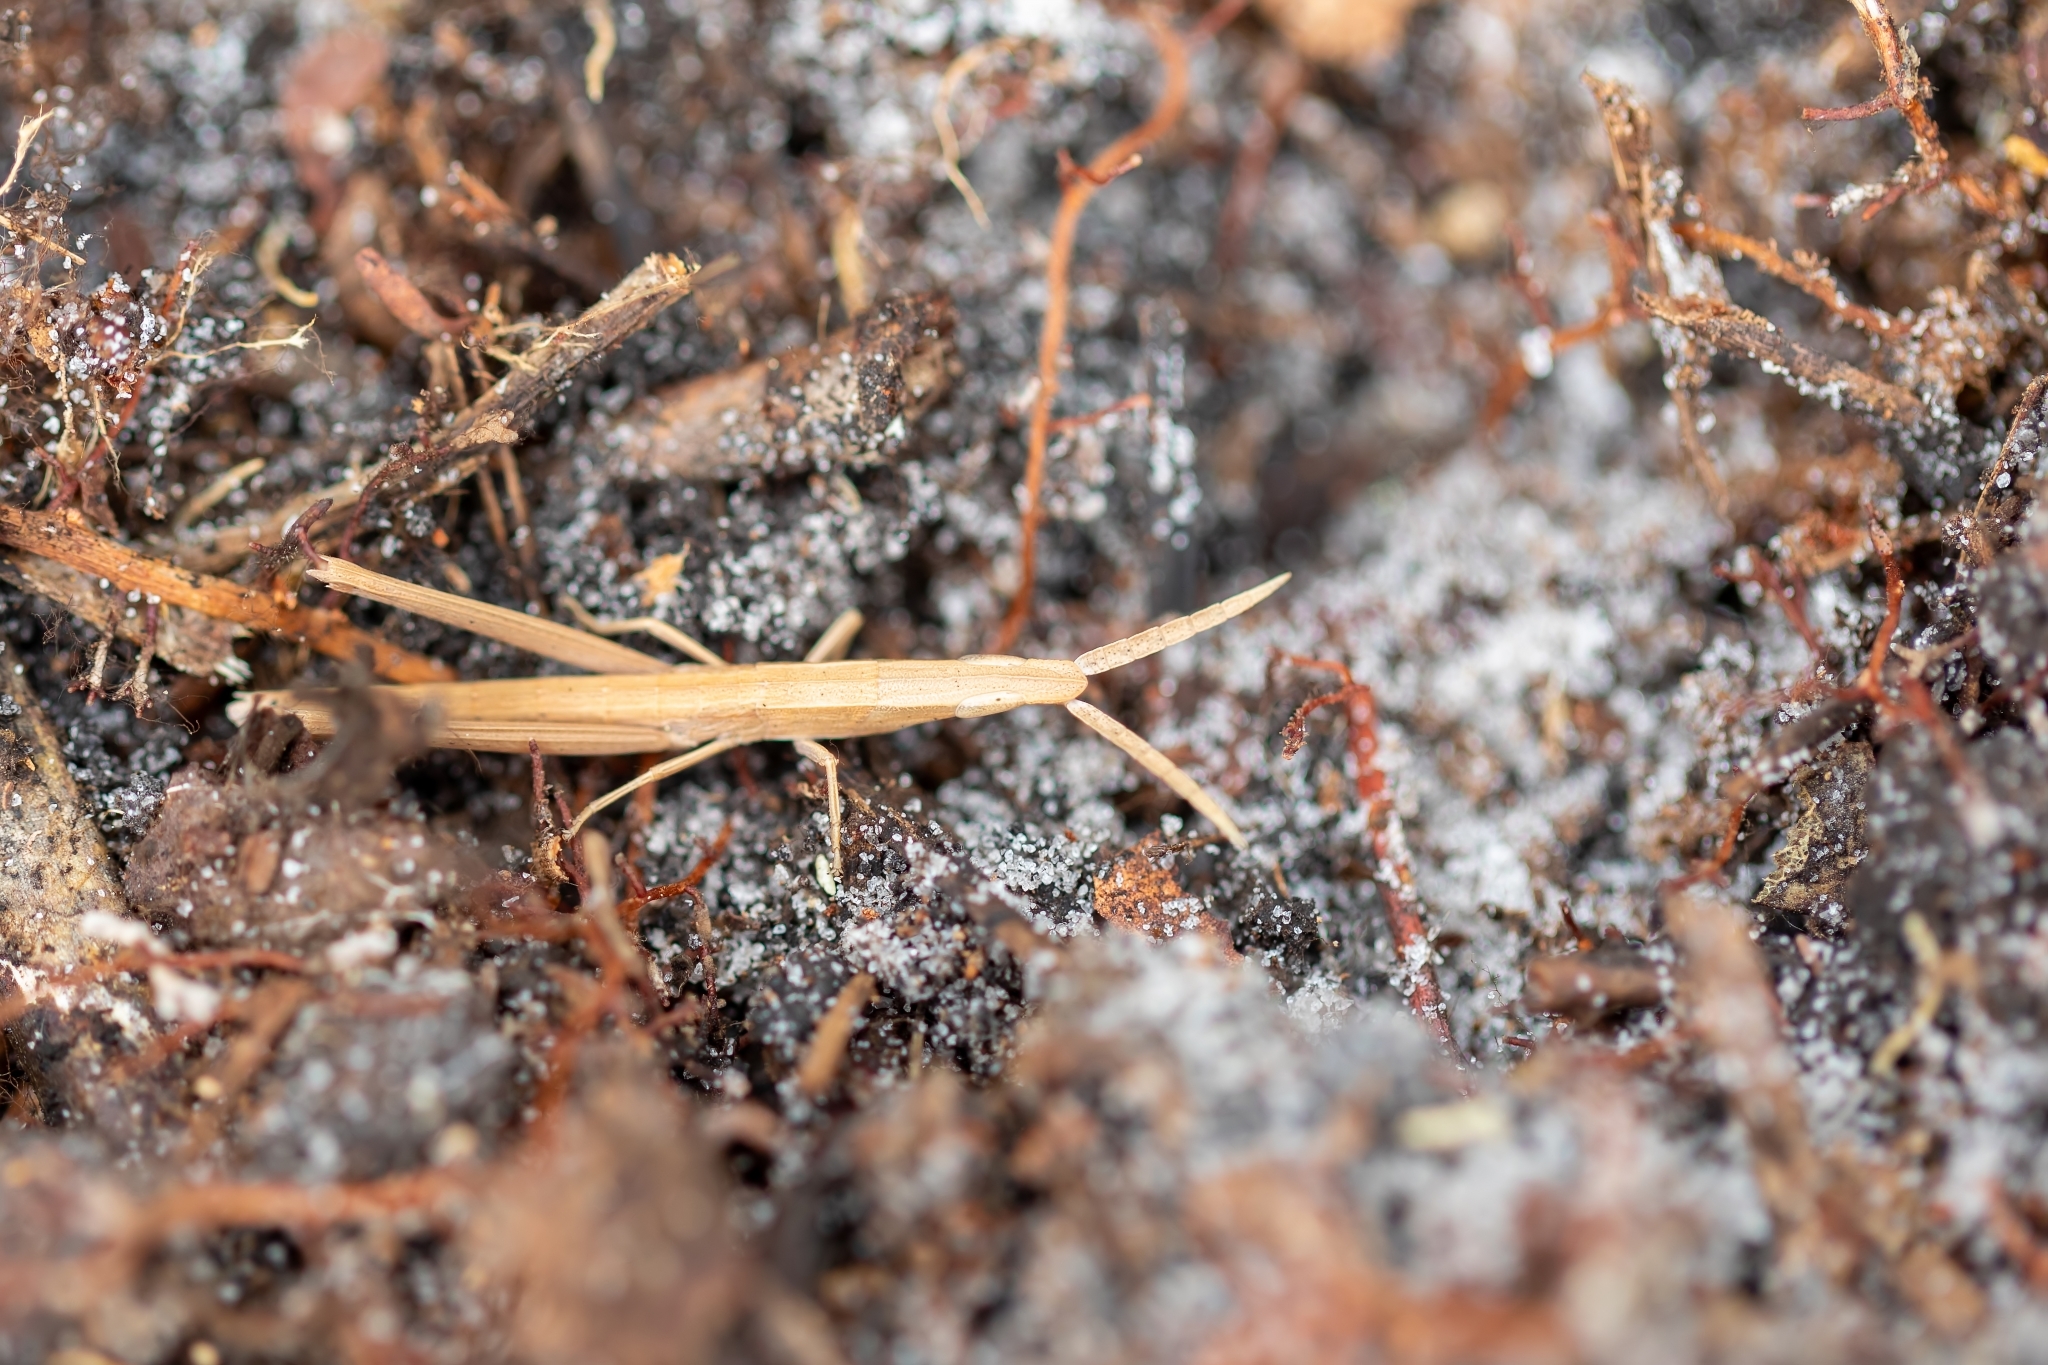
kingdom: Animalia
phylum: Arthropoda
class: Insecta
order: Orthoptera
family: Acrididae
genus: Achurum
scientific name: Achurum carinatum
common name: Long-headed toothpick grasshopper
